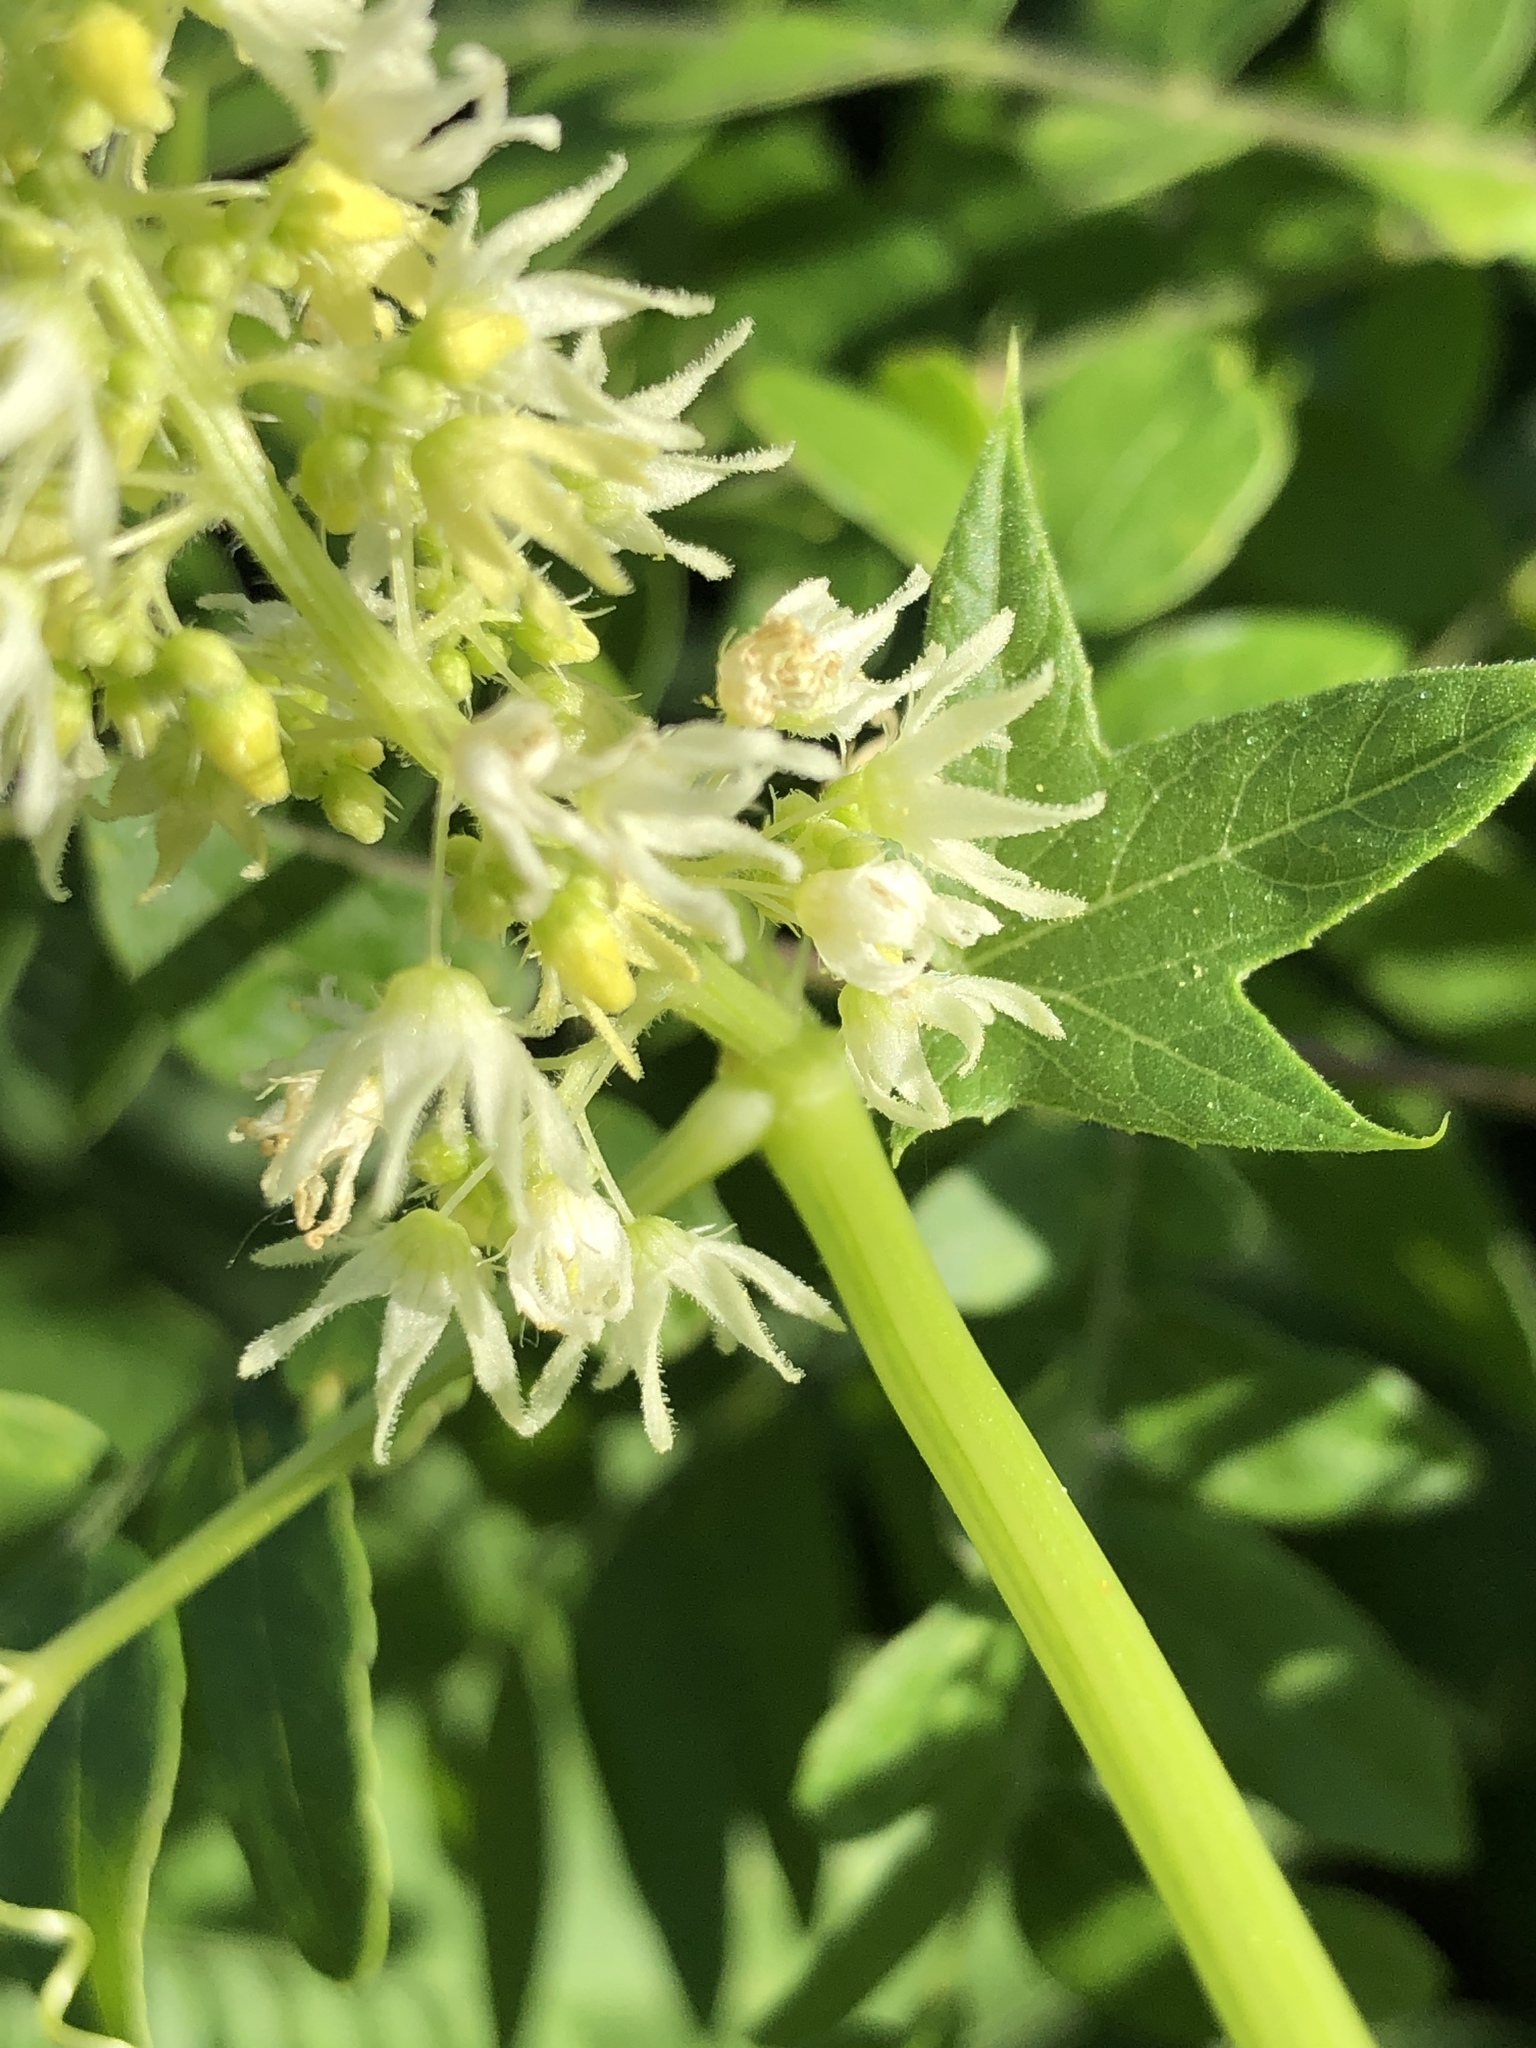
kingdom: Plantae
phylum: Tracheophyta
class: Magnoliopsida
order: Cucurbitales
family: Cucurbitaceae
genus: Echinocystis
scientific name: Echinocystis lobata
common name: Wild cucumber
